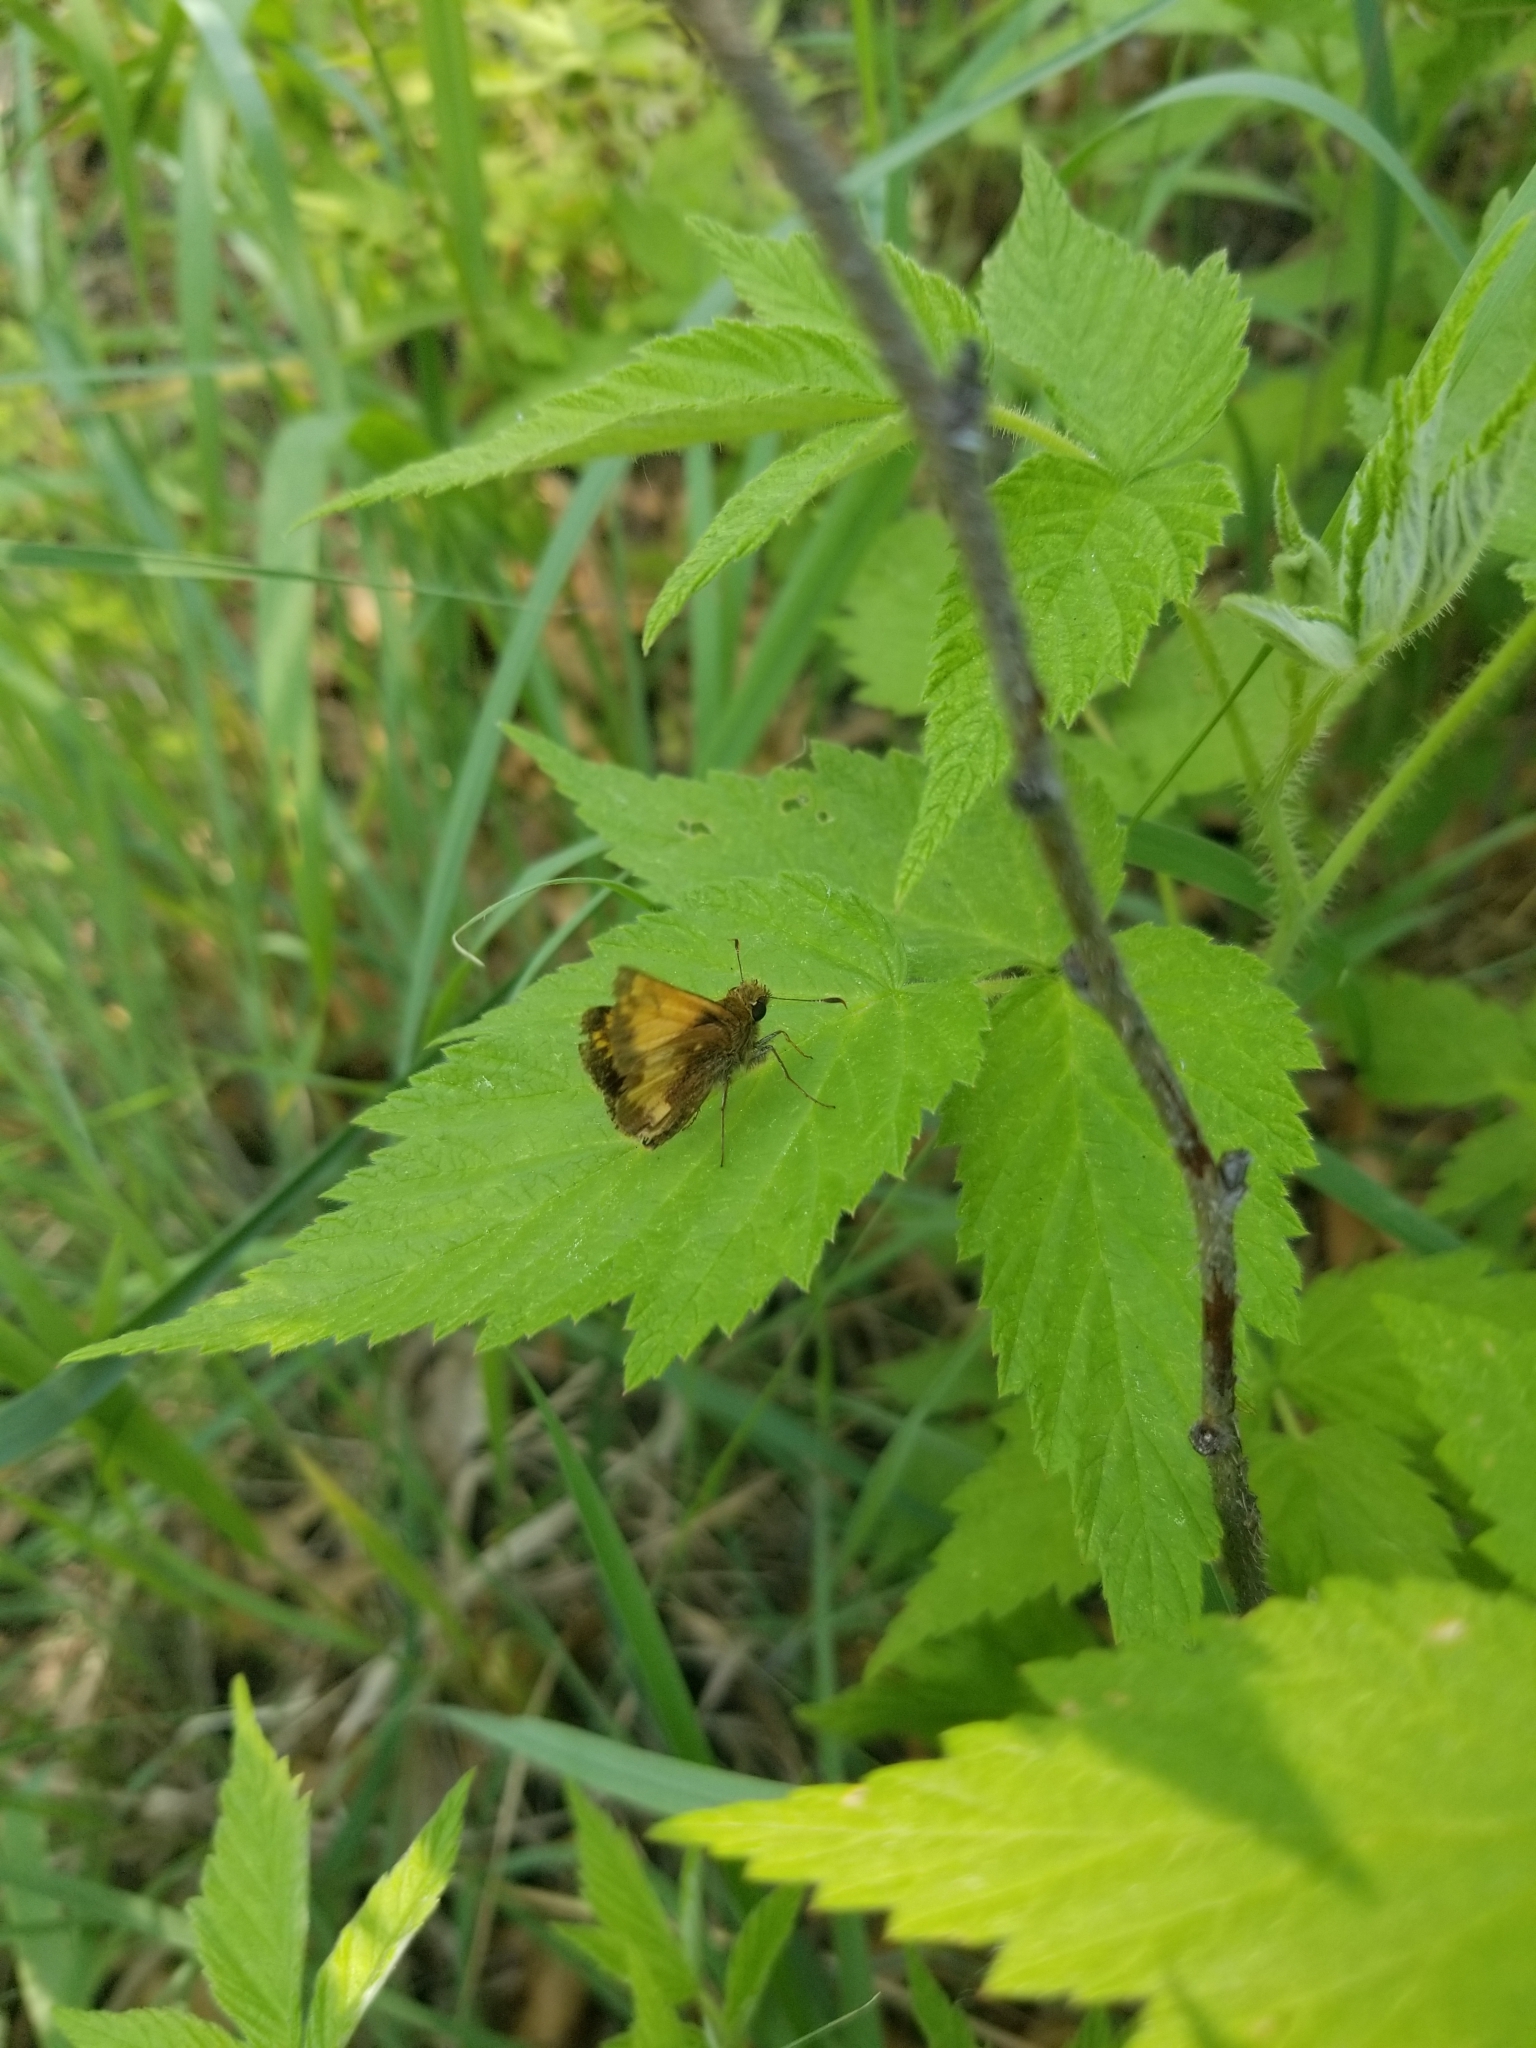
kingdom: Animalia
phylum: Arthropoda
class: Insecta
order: Lepidoptera
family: Hesperiidae
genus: Lon
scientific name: Lon hobomok
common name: Hobomok skipper
